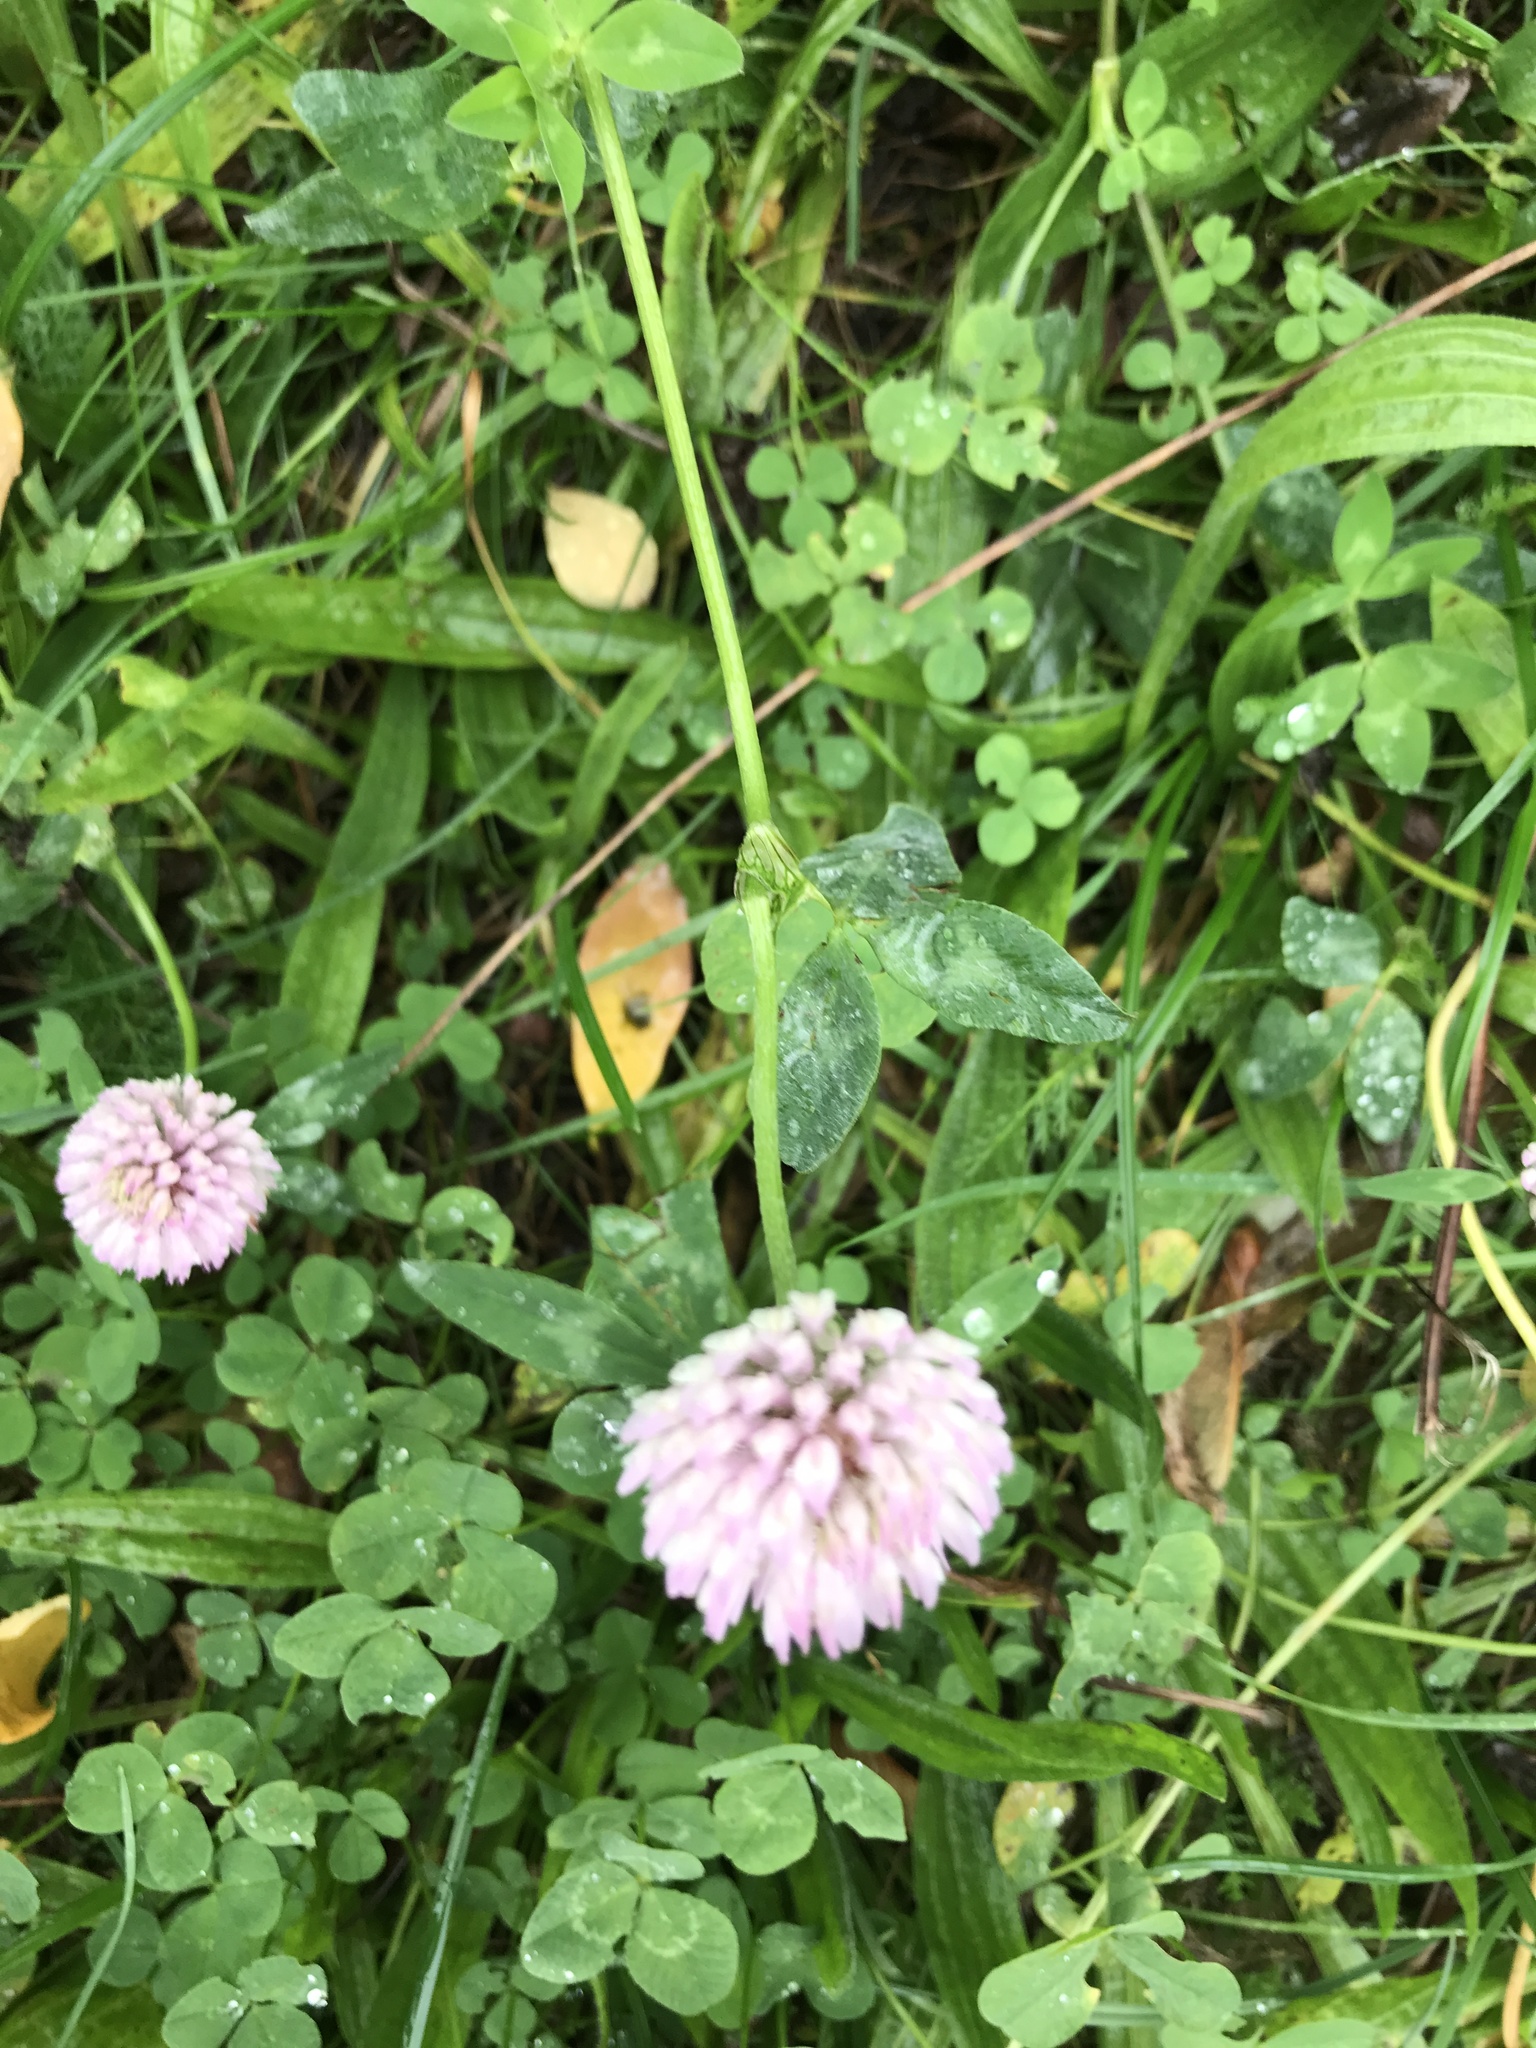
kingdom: Plantae
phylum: Tracheophyta
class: Magnoliopsida
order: Fabales
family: Fabaceae
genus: Trifolium
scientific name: Trifolium pratense
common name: Red clover
